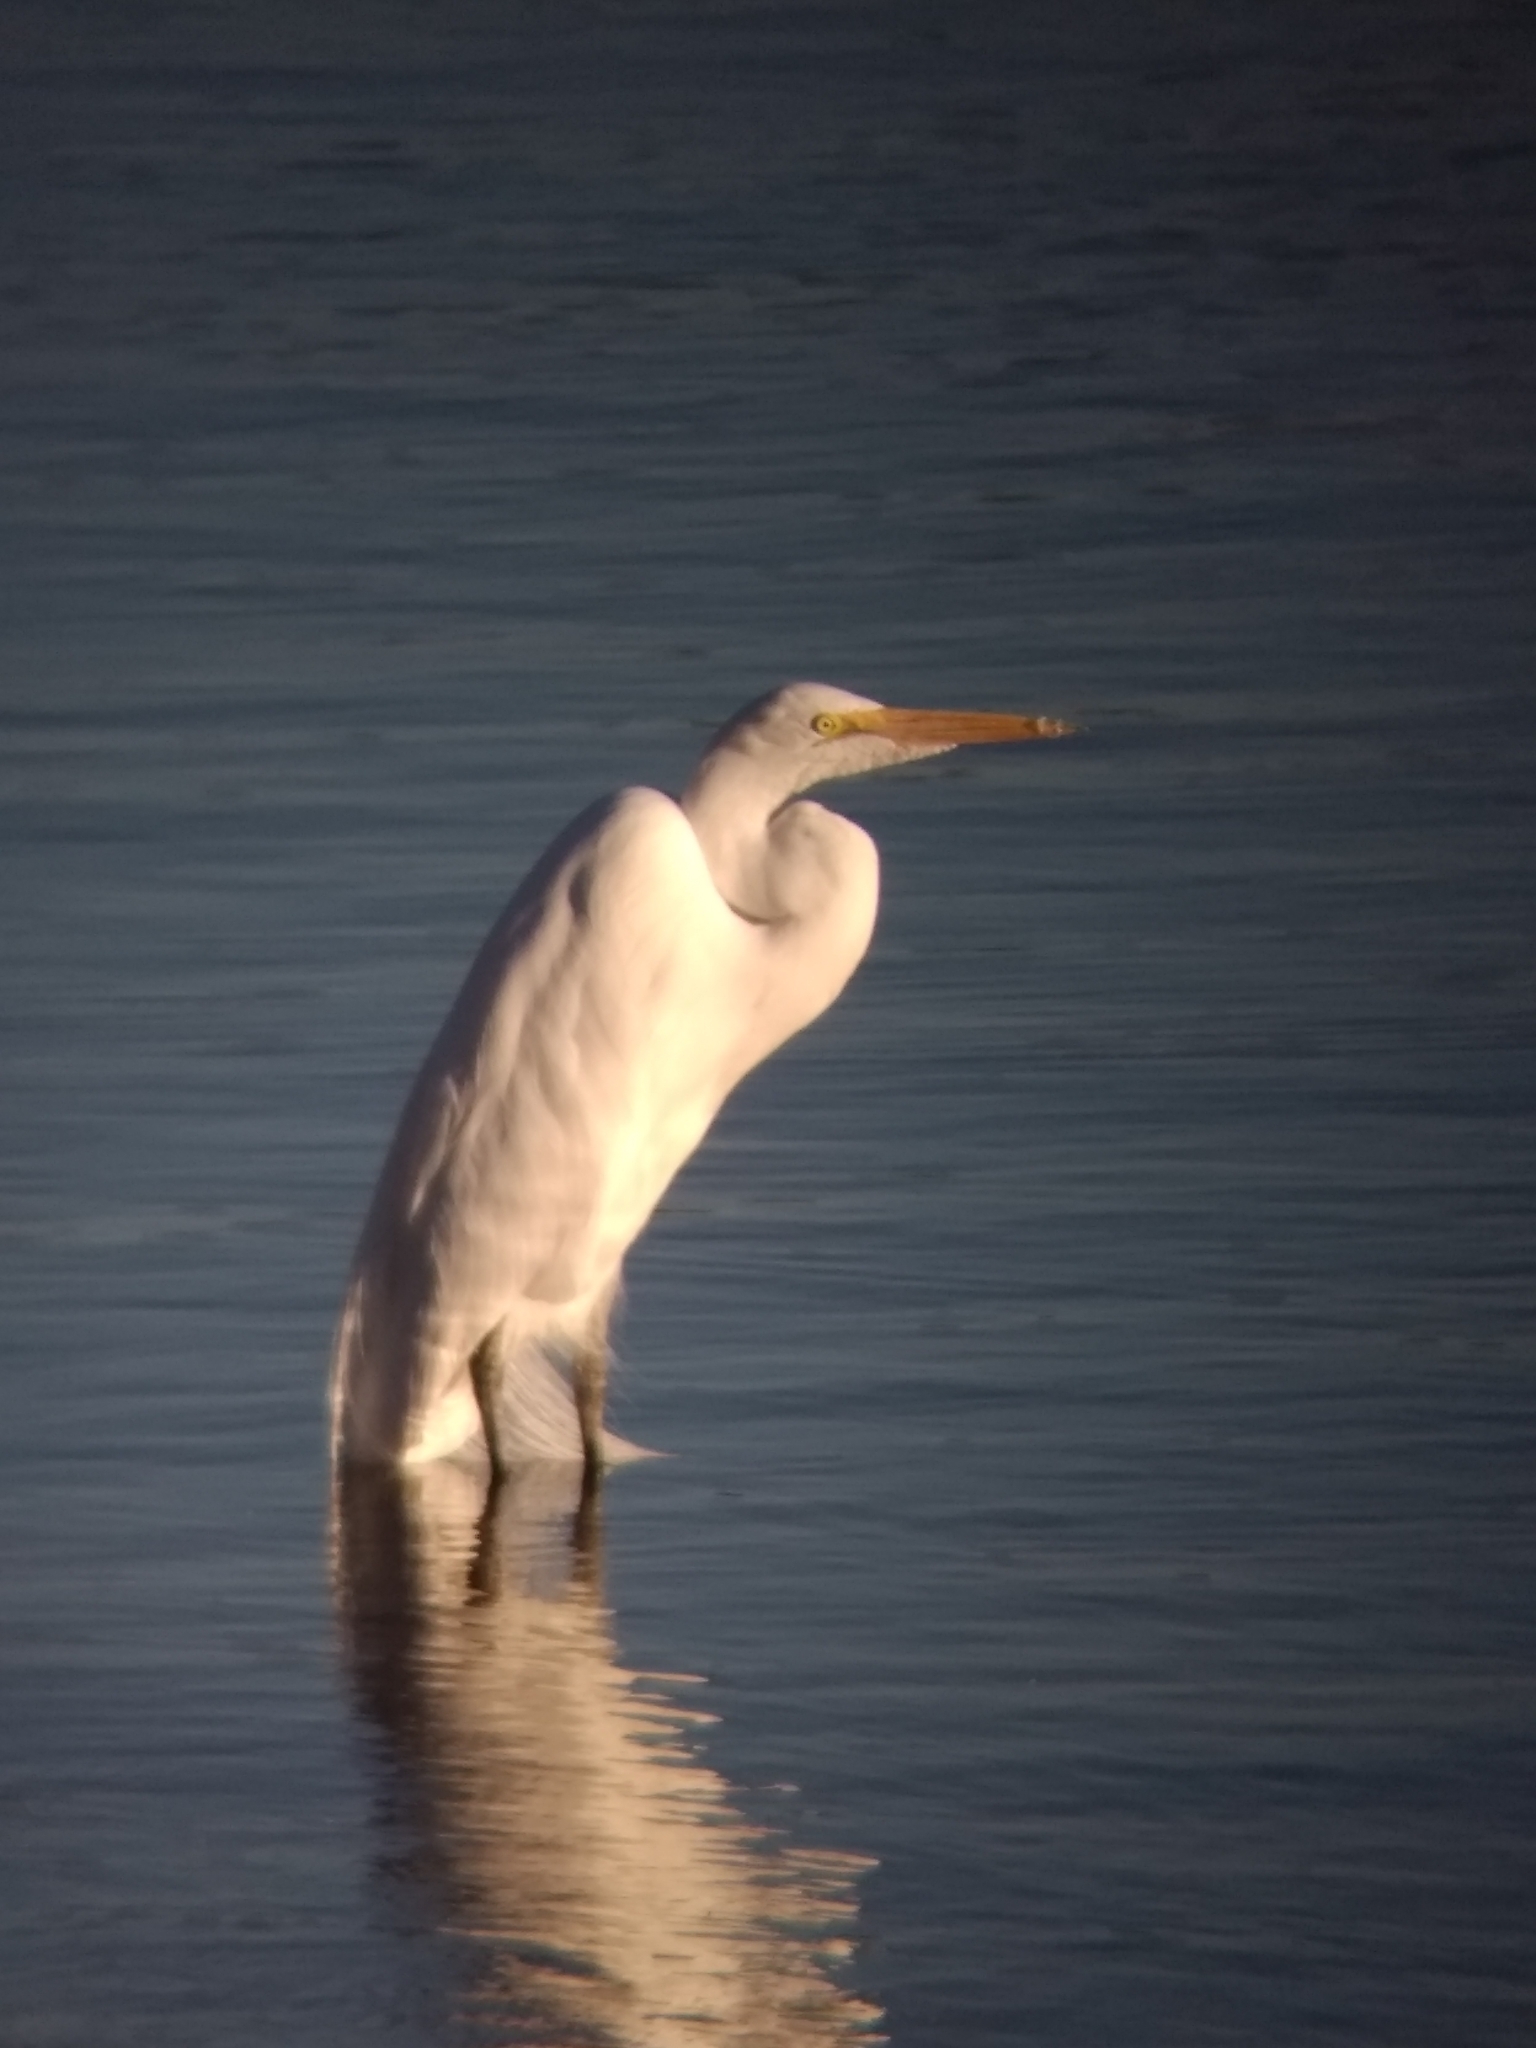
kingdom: Animalia
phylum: Chordata
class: Aves
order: Pelecaniformes
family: Ardeidae
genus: Ardea
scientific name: Ardea alba
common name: Great egret
